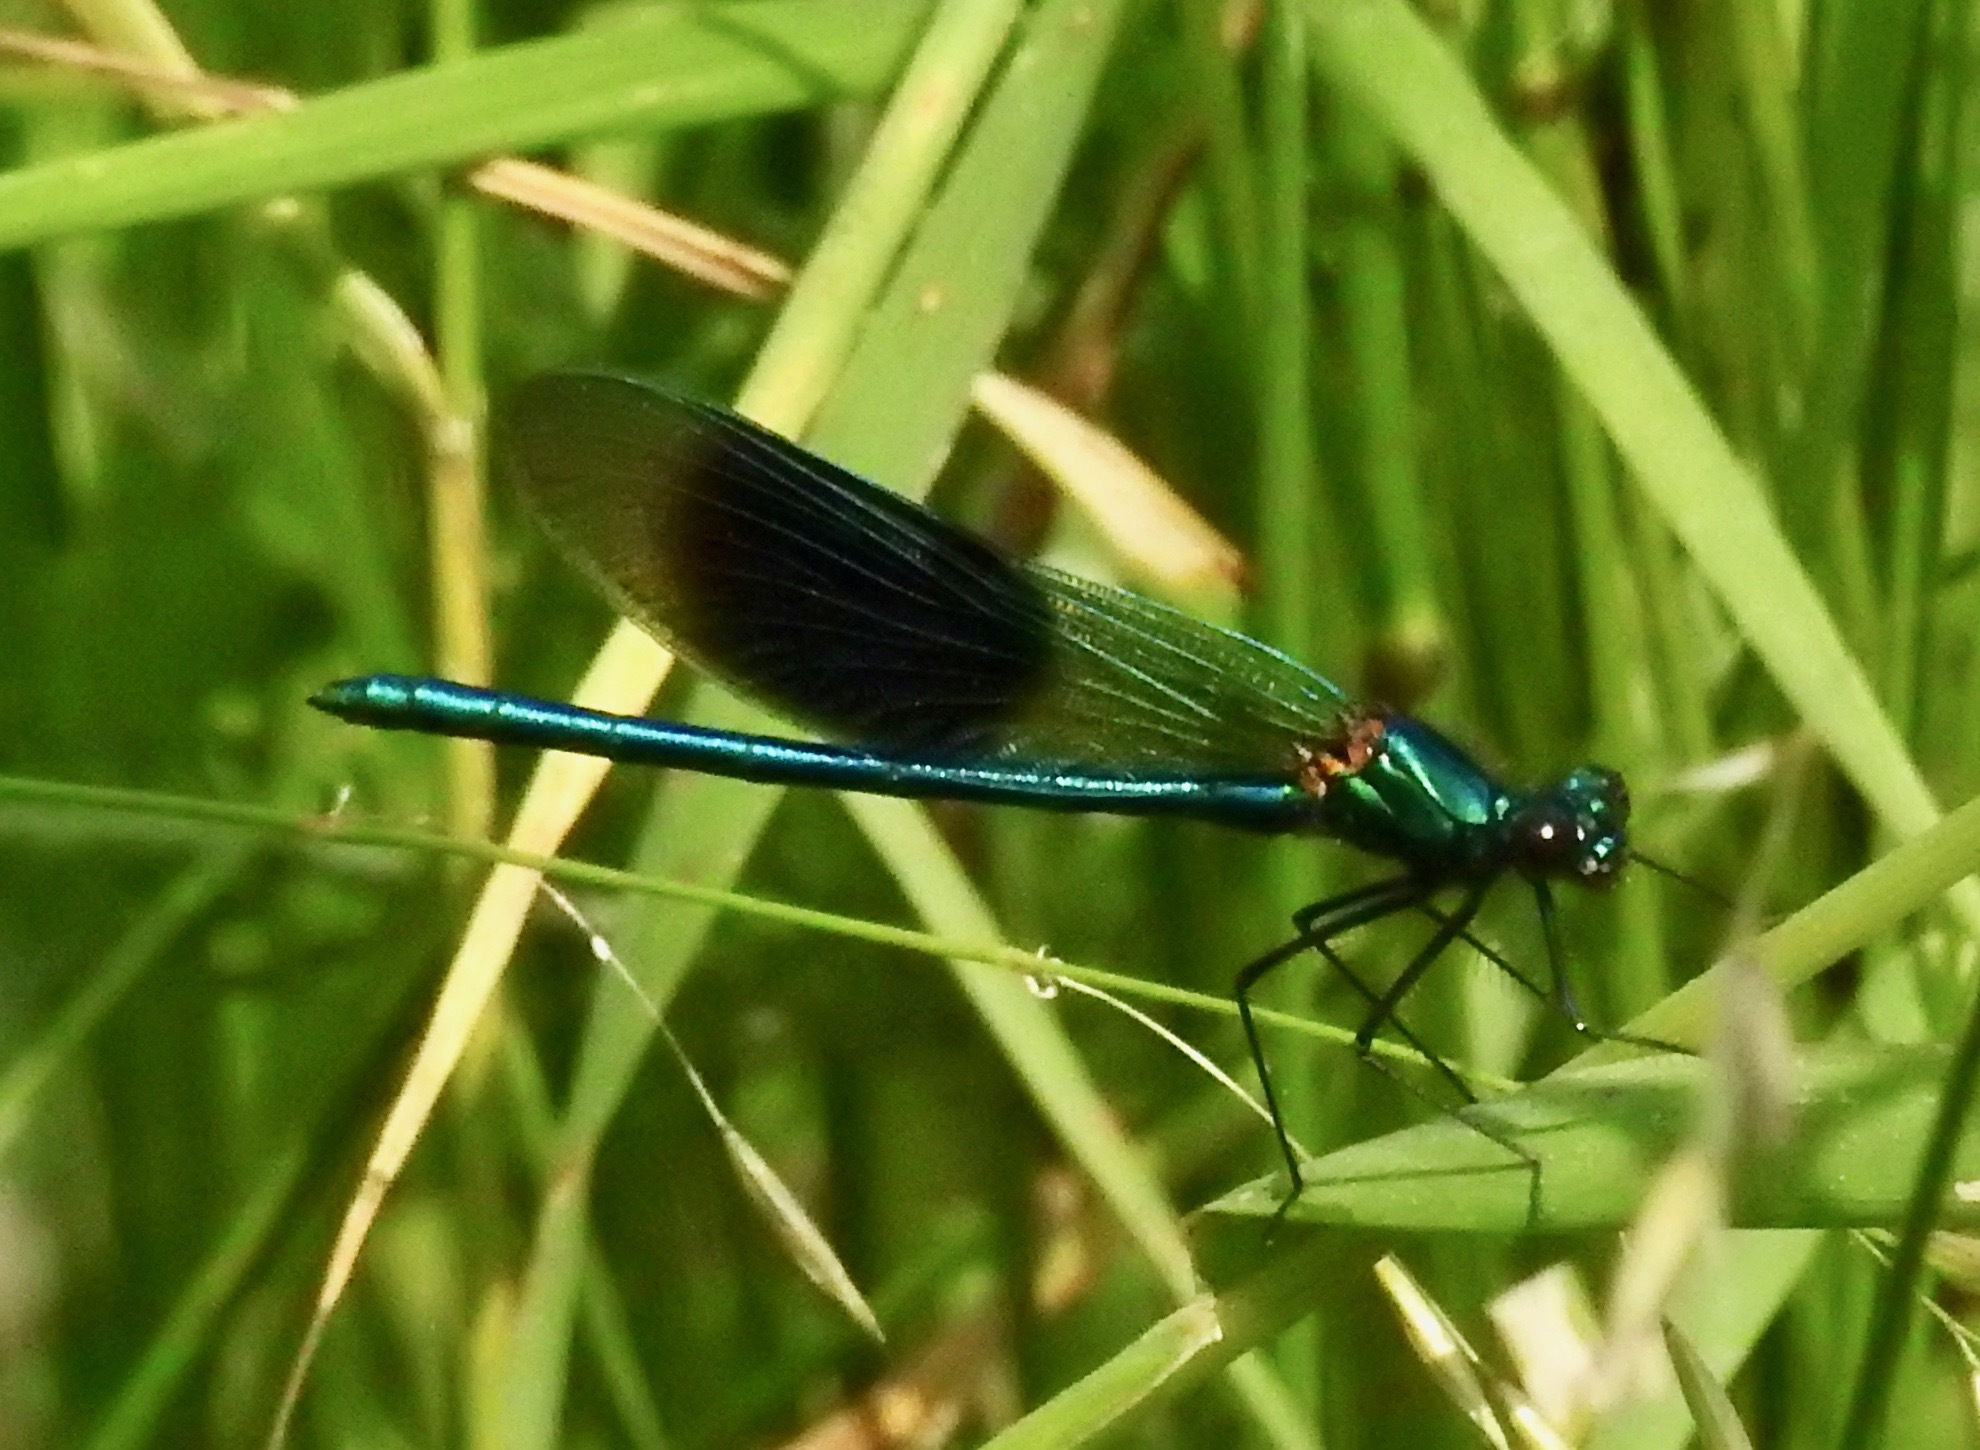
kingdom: Animalia
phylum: Arthropoda
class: Insecta
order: Odonata
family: Calopterygidae
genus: Calopteryx
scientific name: Calopteryx splendens
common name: Banded demoiselle
